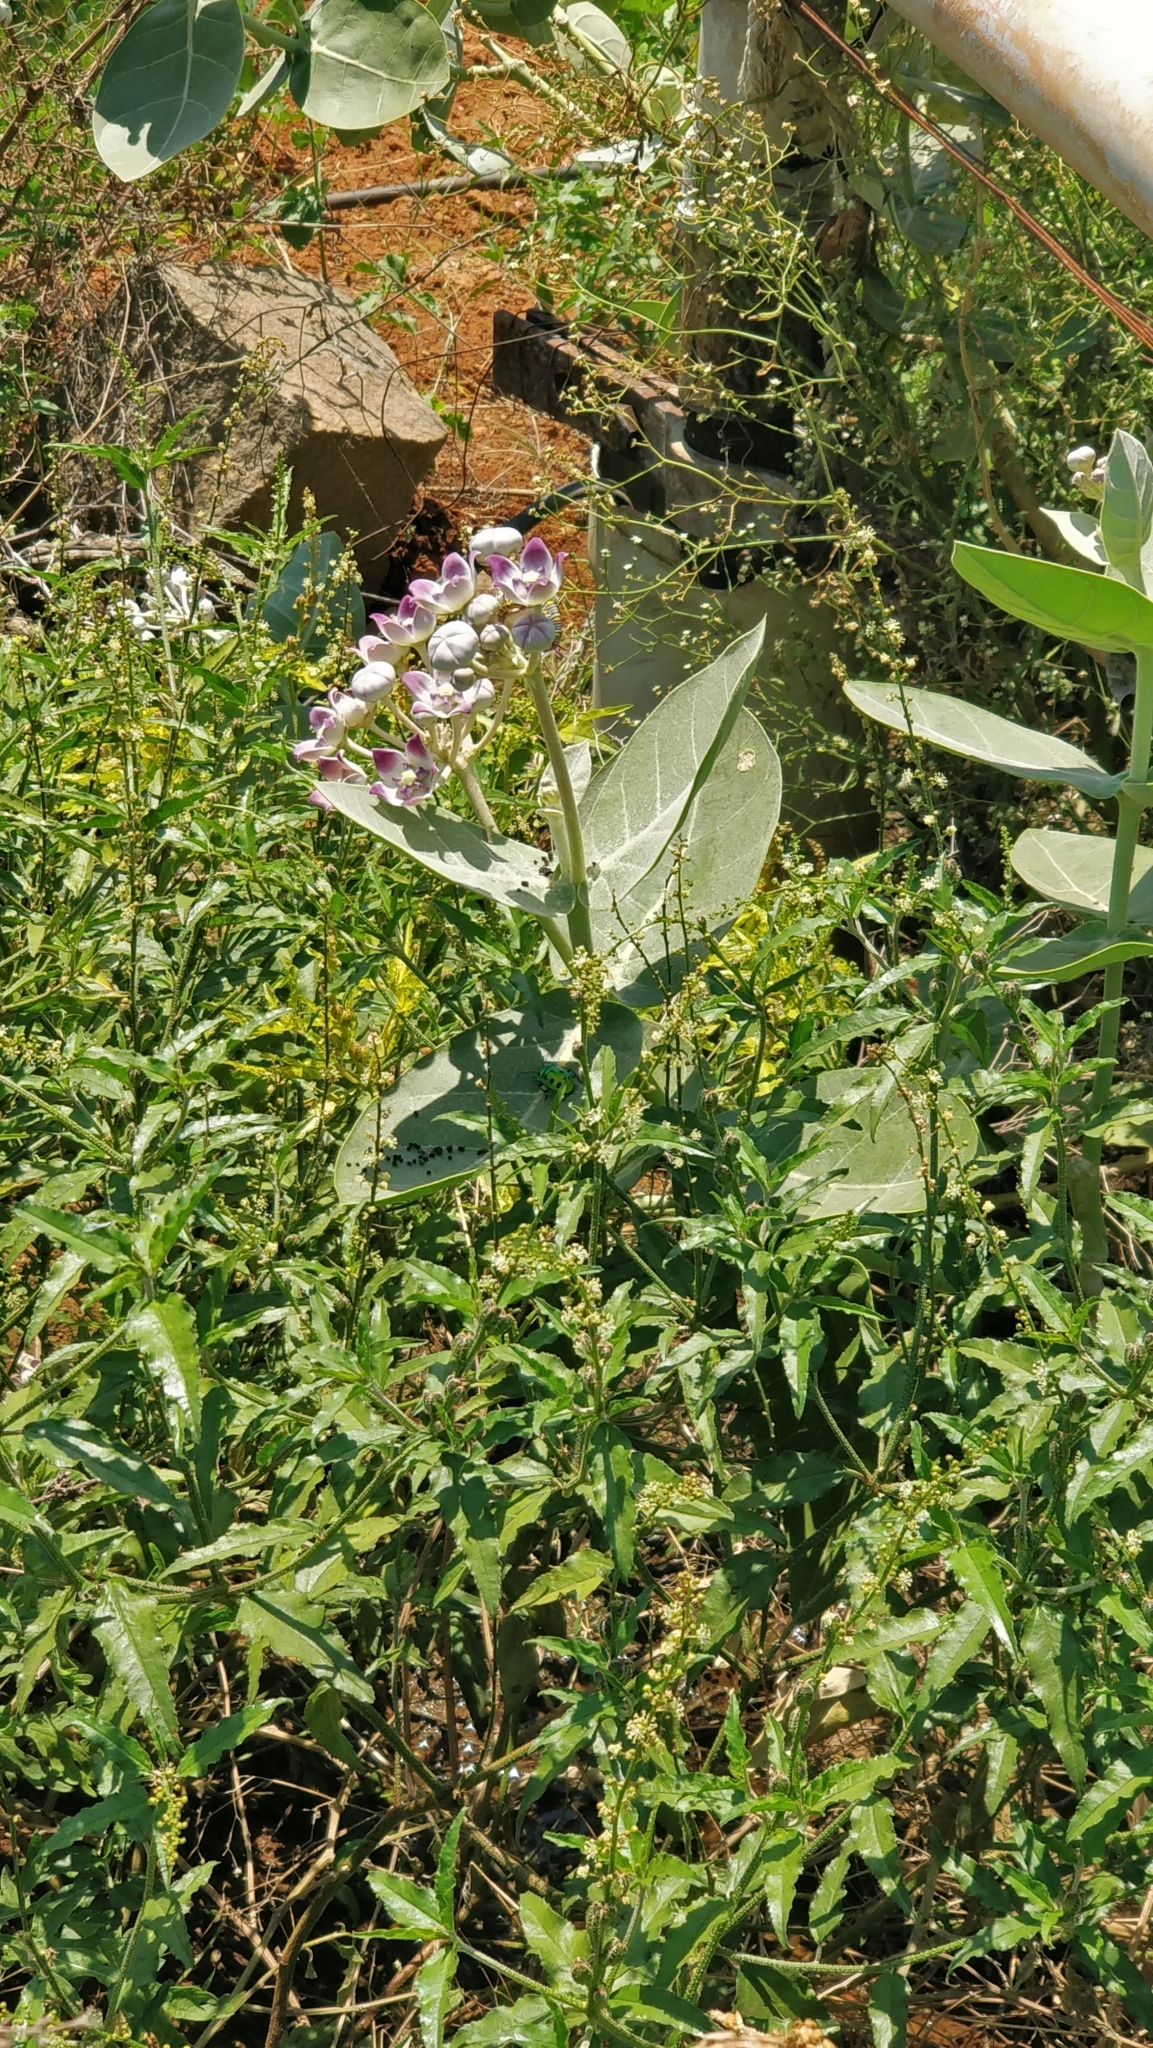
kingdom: Plantae
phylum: Tracheophyta
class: Magnoliopsida
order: Gentianales
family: Apocynaceae
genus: Calotropis
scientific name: Calotropis procera
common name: Roostertree
